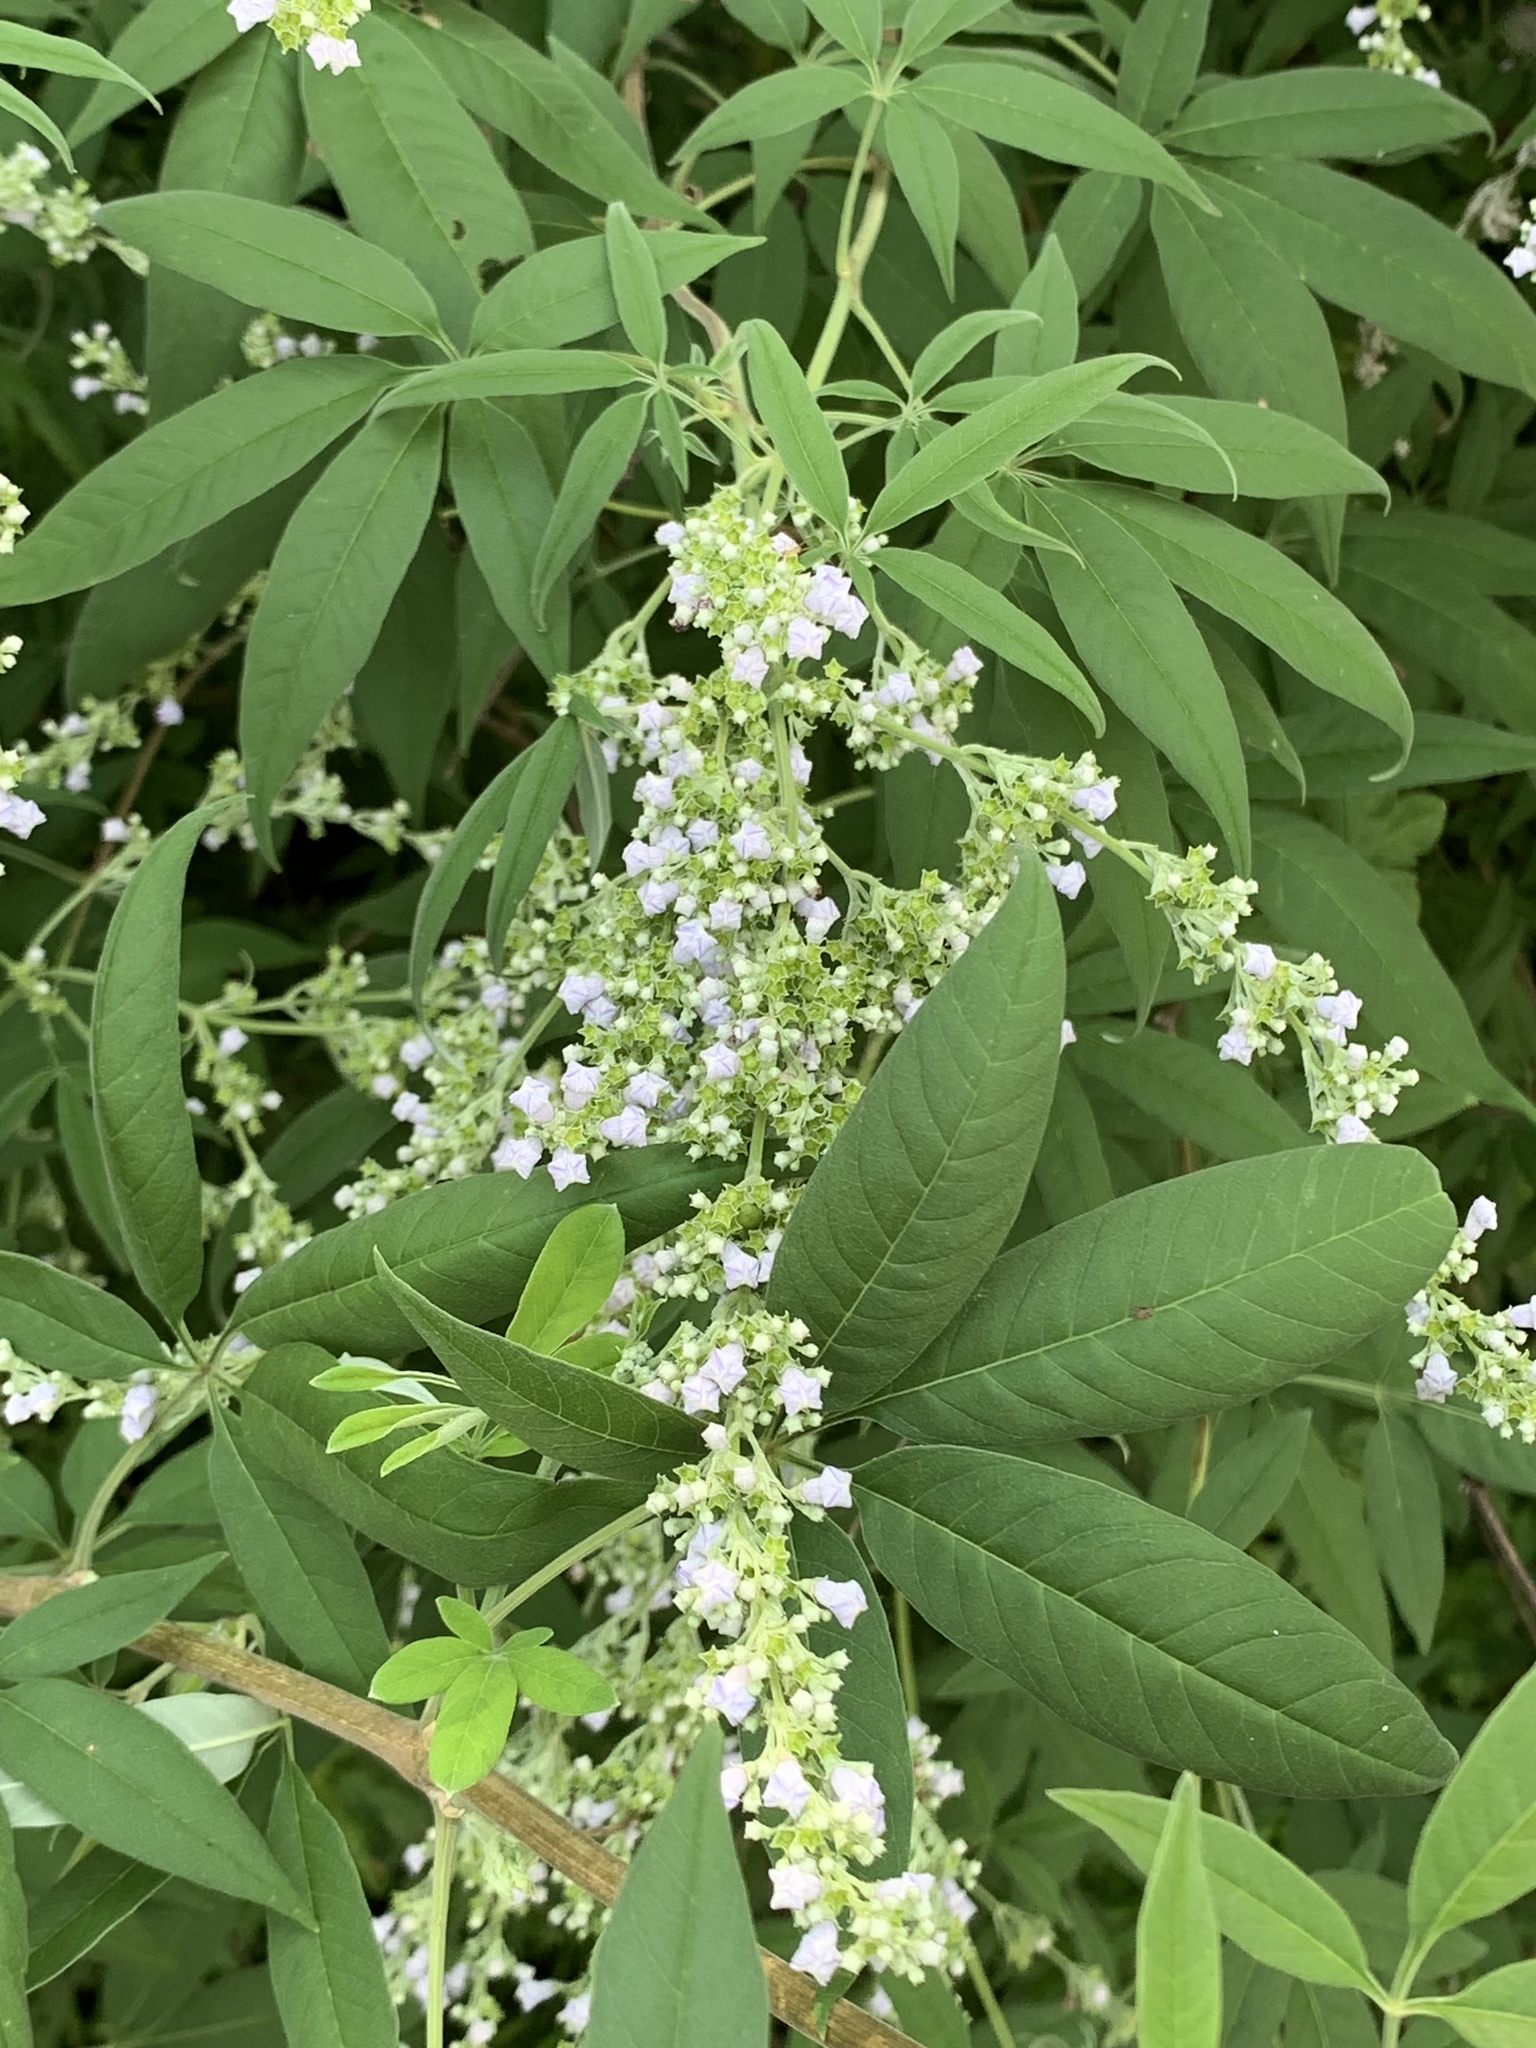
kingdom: Plantae
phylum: Tracheophyta
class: Magnoliopsida
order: Lamiales
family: Lamiaceae
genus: Vitex
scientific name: Vitex negundo
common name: Chinese chastetree
